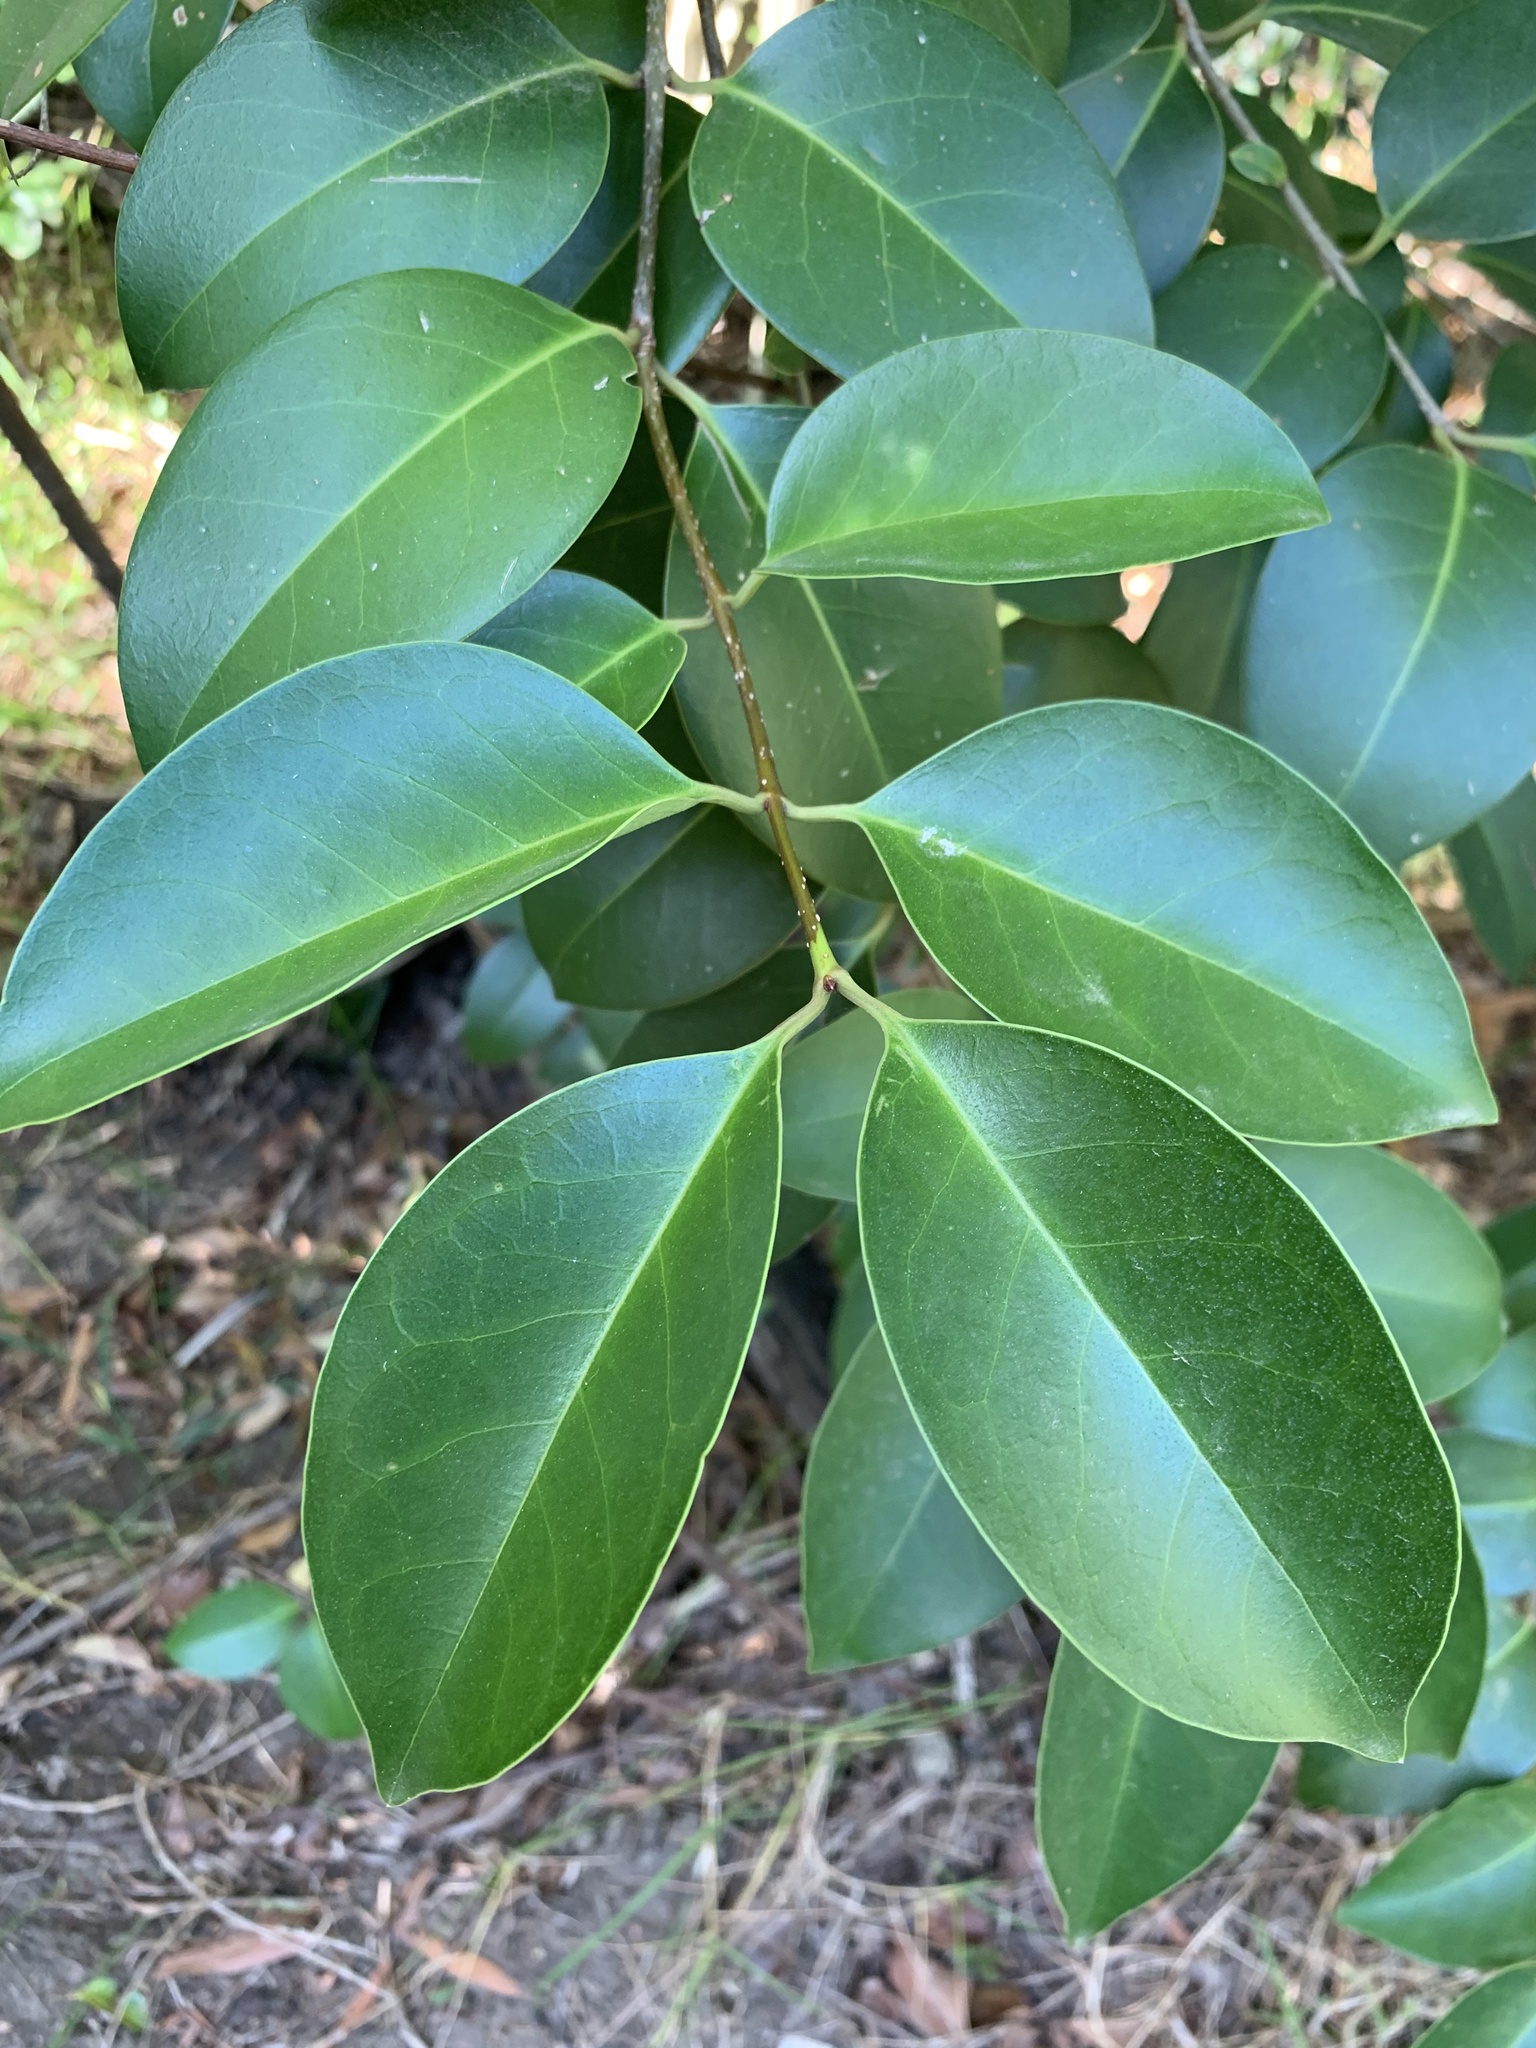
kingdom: Plantae
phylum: Tracheophyta
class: Magnoliopsida
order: Lamiales
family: Oleaceae
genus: Ligustrum
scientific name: Ligustrum lucidum
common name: Glossy privet
